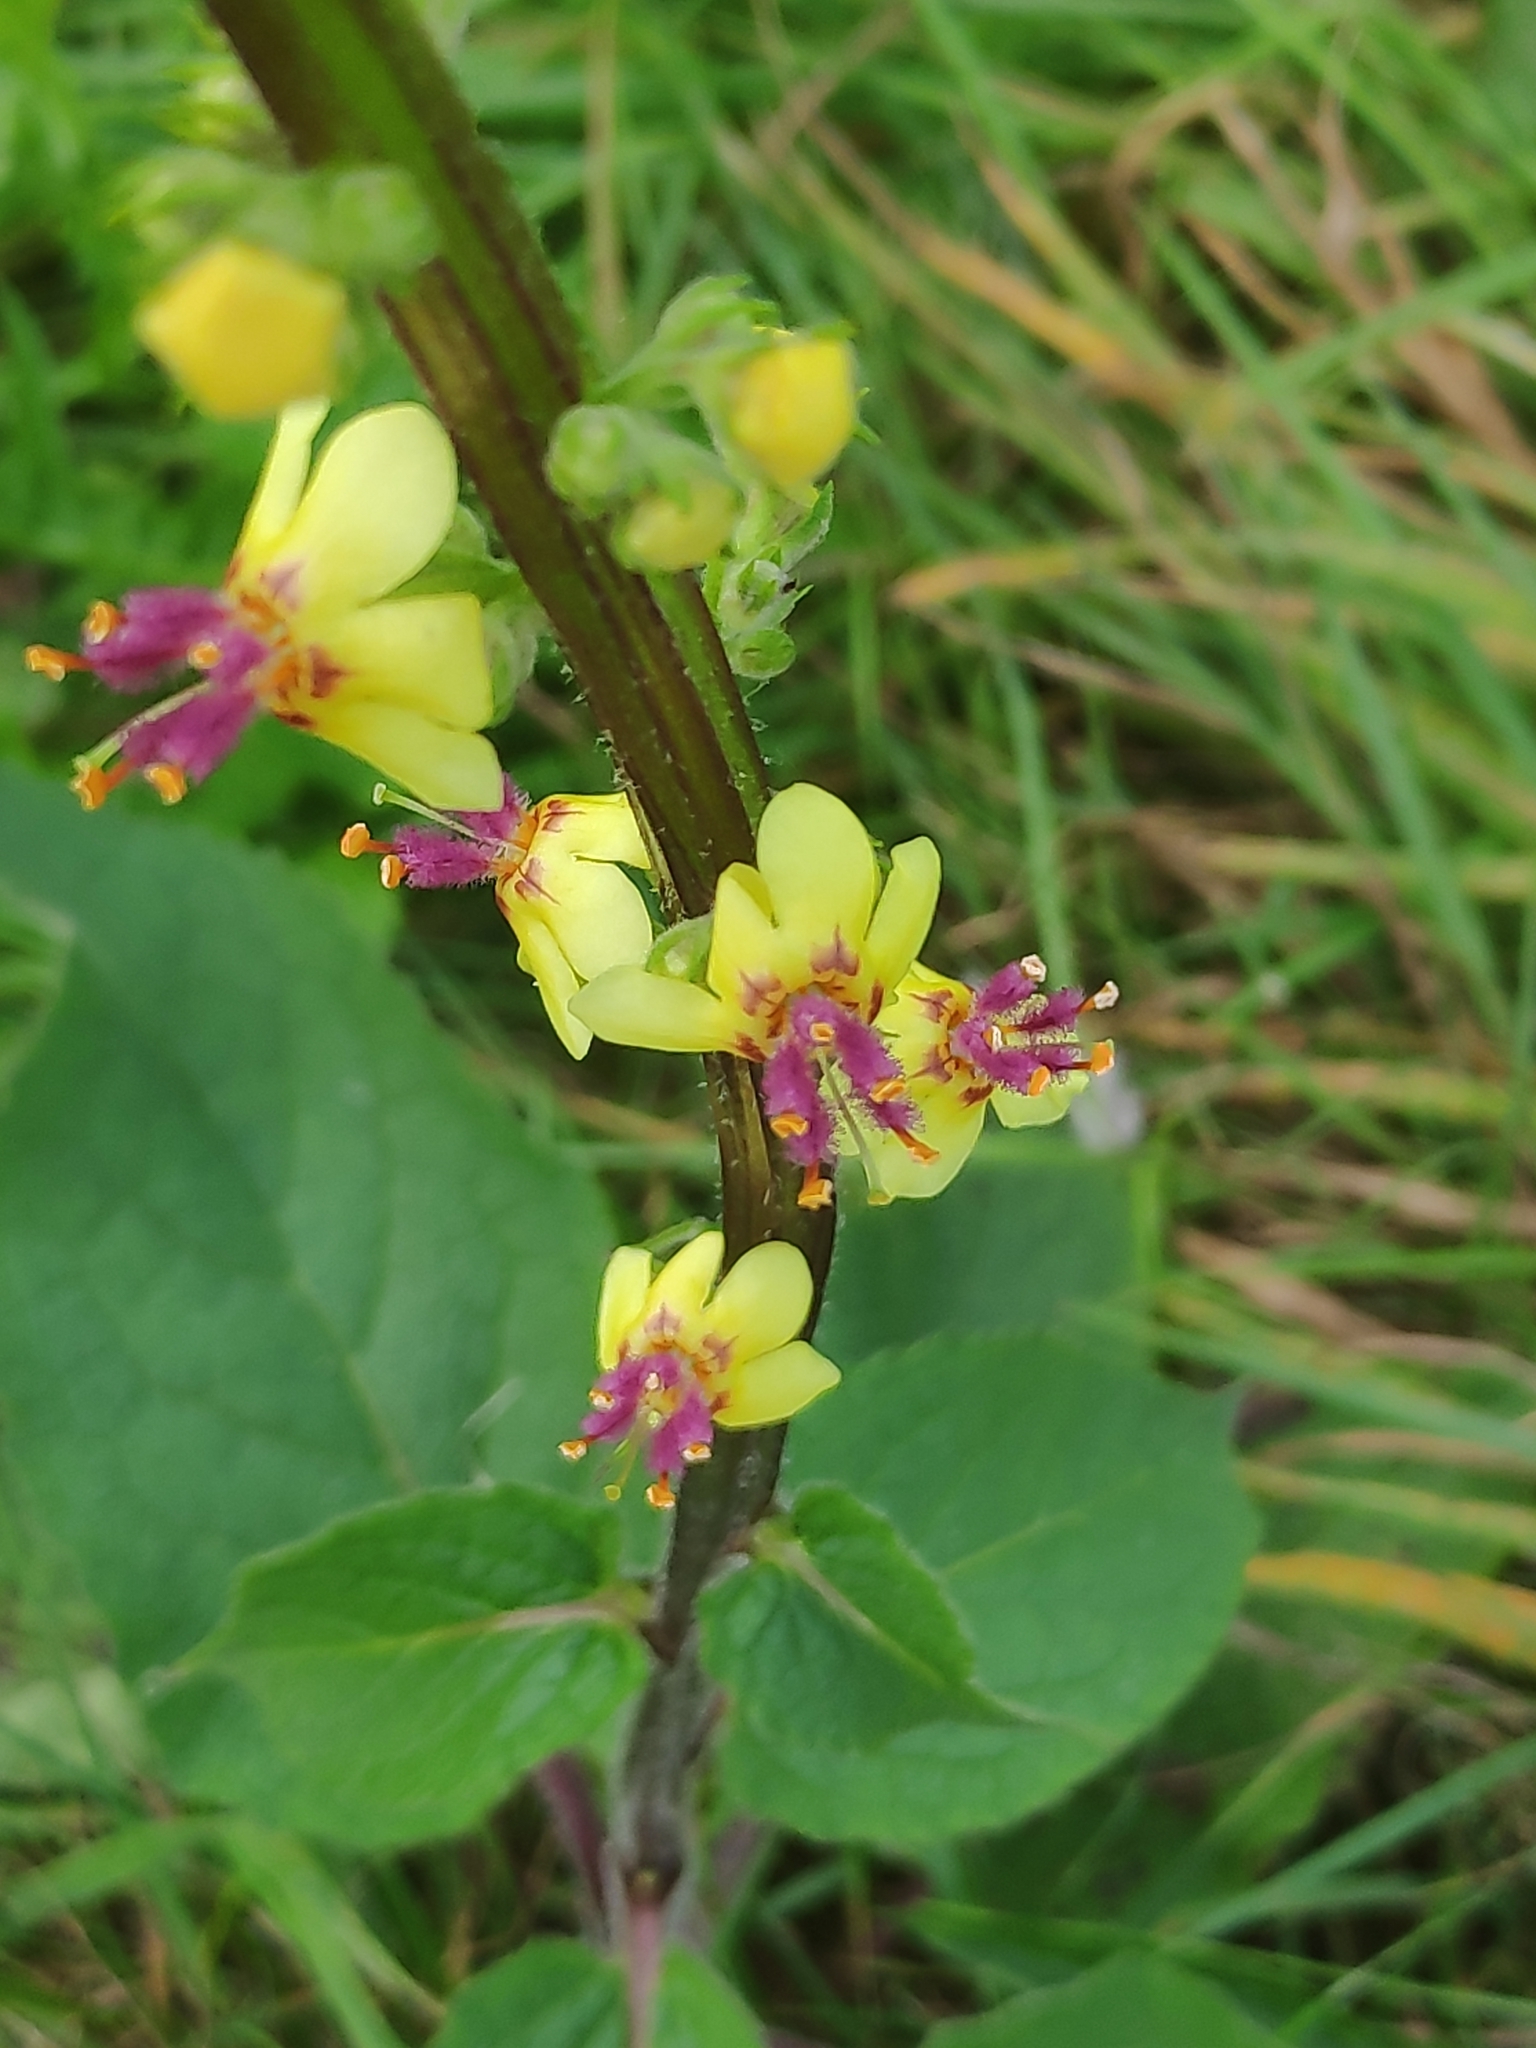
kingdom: Plantae
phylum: Tracheophyta
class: Magnoliopsida
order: Lamiales
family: Scrophulariaceae
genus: Verbascum
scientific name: Verbascum nigrum
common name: Dark mullein
